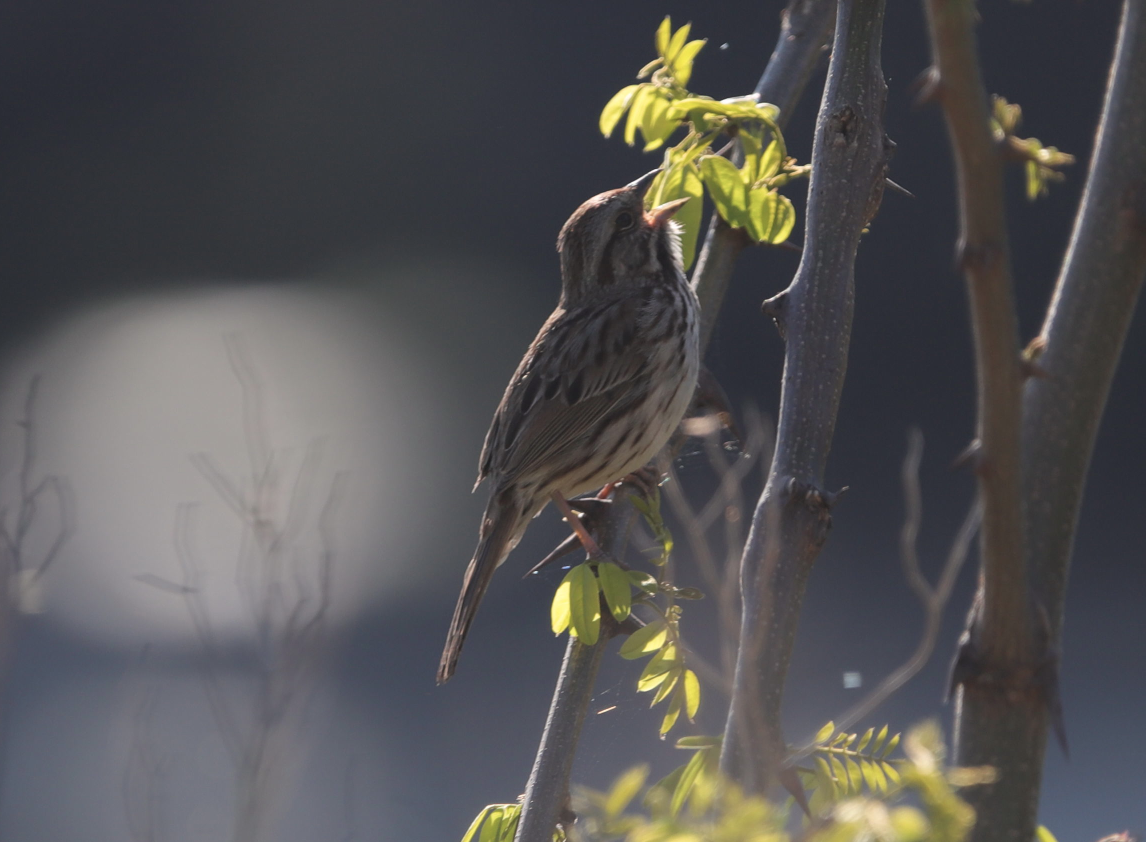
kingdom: Animalia
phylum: Chordata
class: Aves
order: Passeriformes
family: Passerellidae
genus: Melospiza
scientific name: Melospiza melodia
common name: Song sparrow
